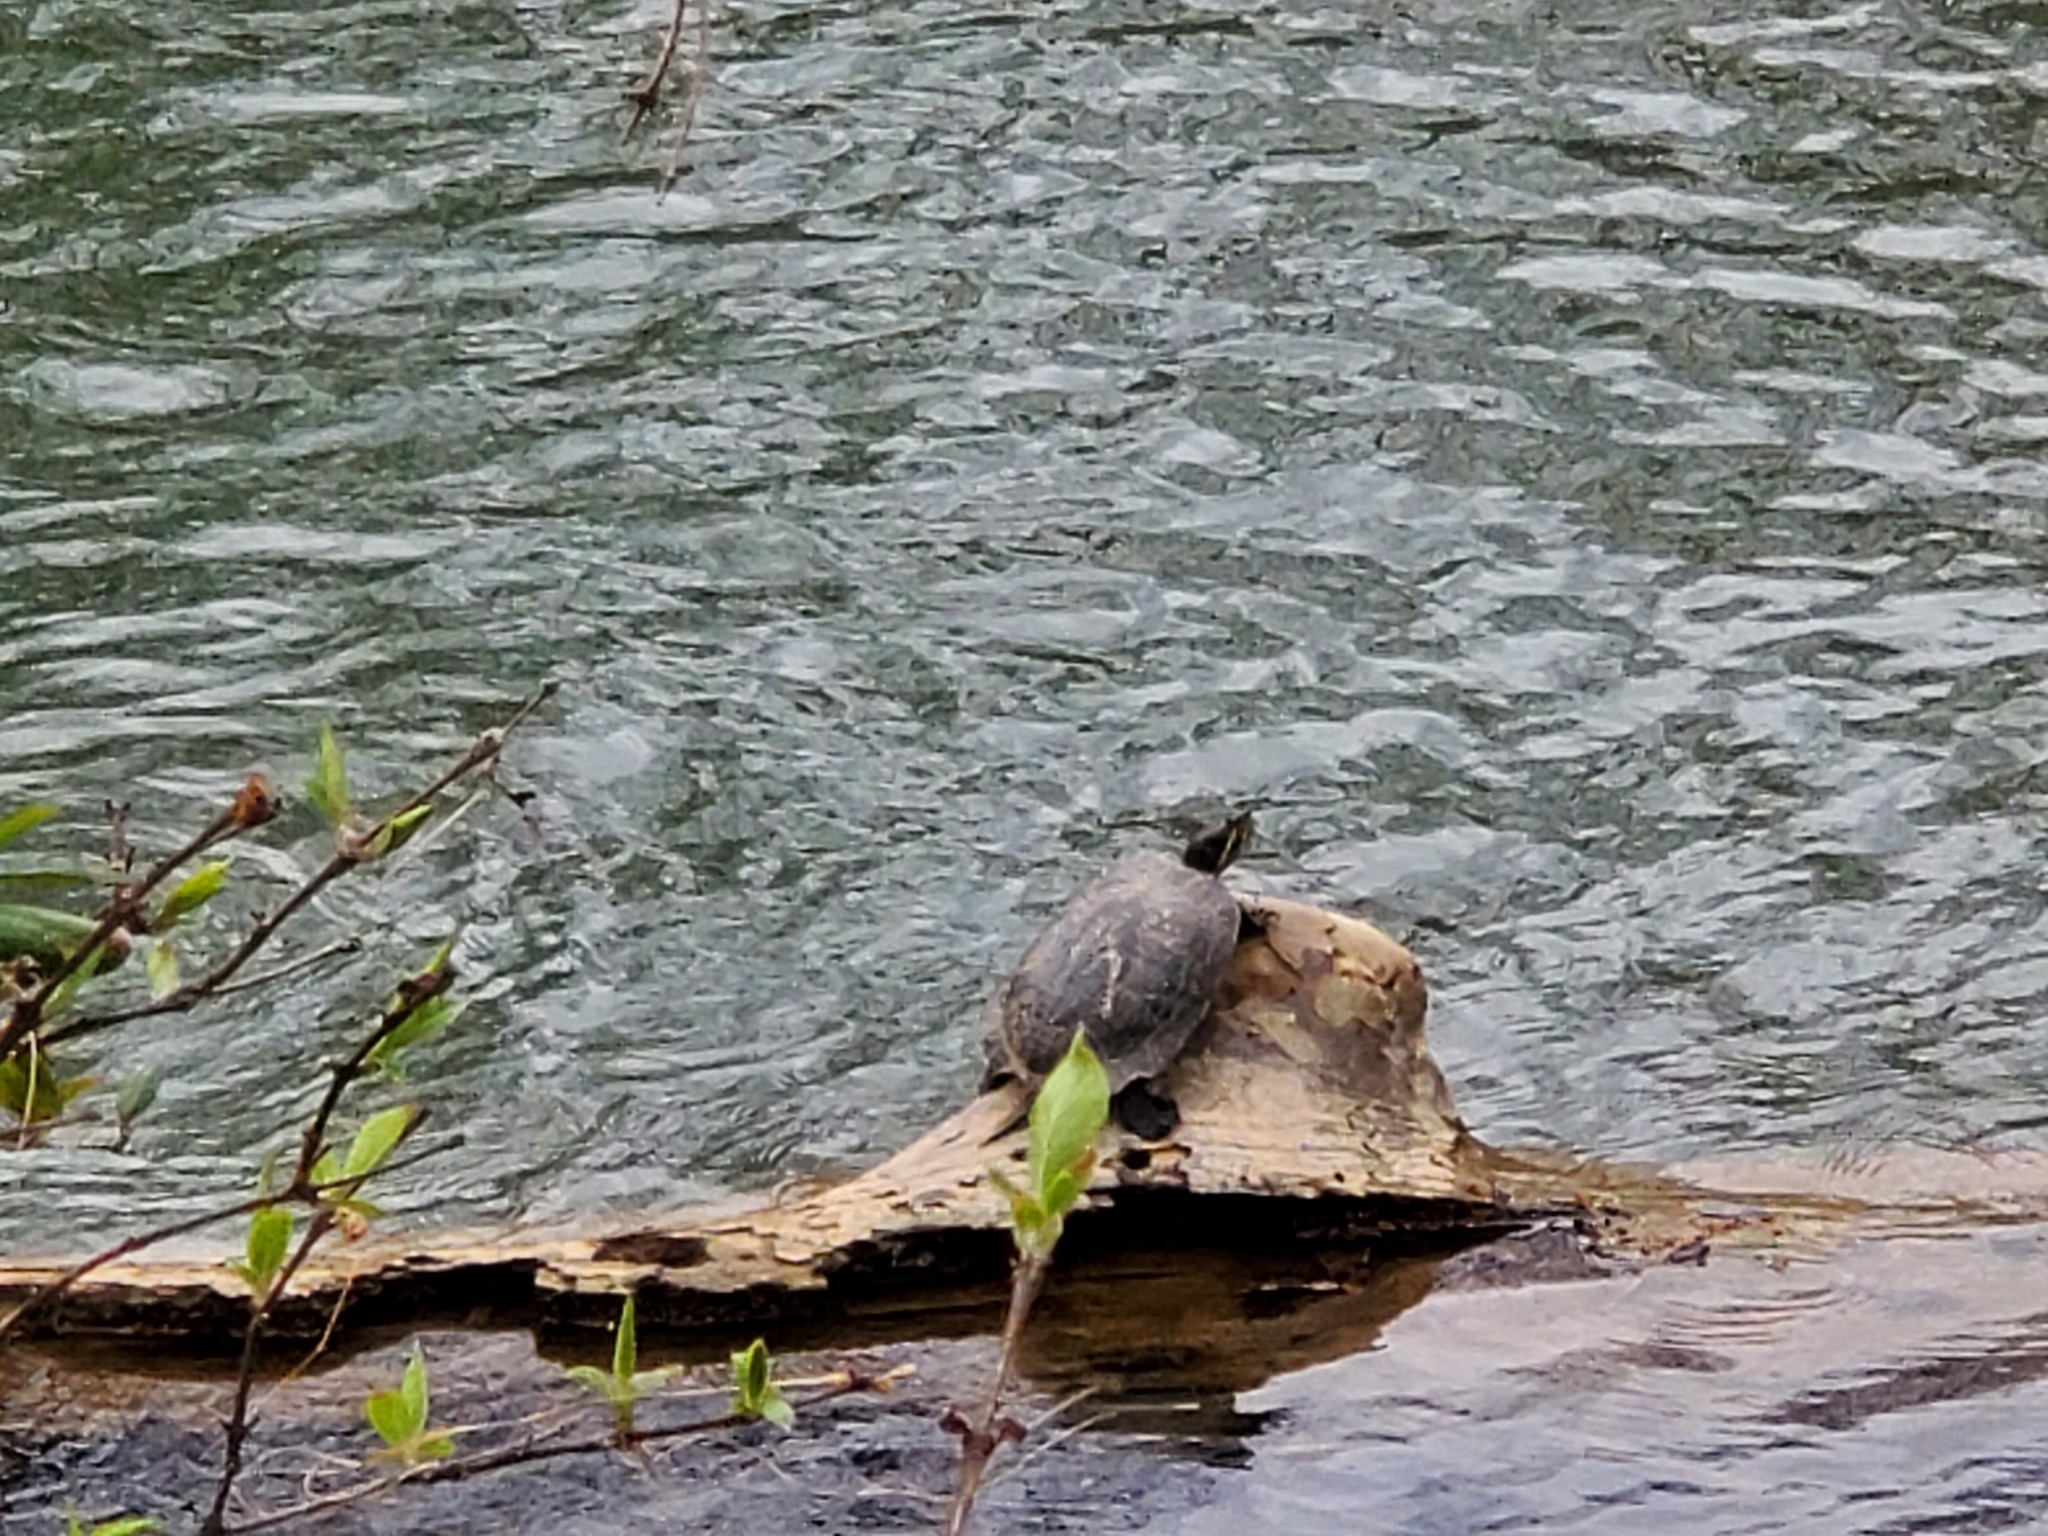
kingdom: Animalia
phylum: Chordata
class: Testudines
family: Emydidae
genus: Trachemys
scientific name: Trachemys scripta
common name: Slider
